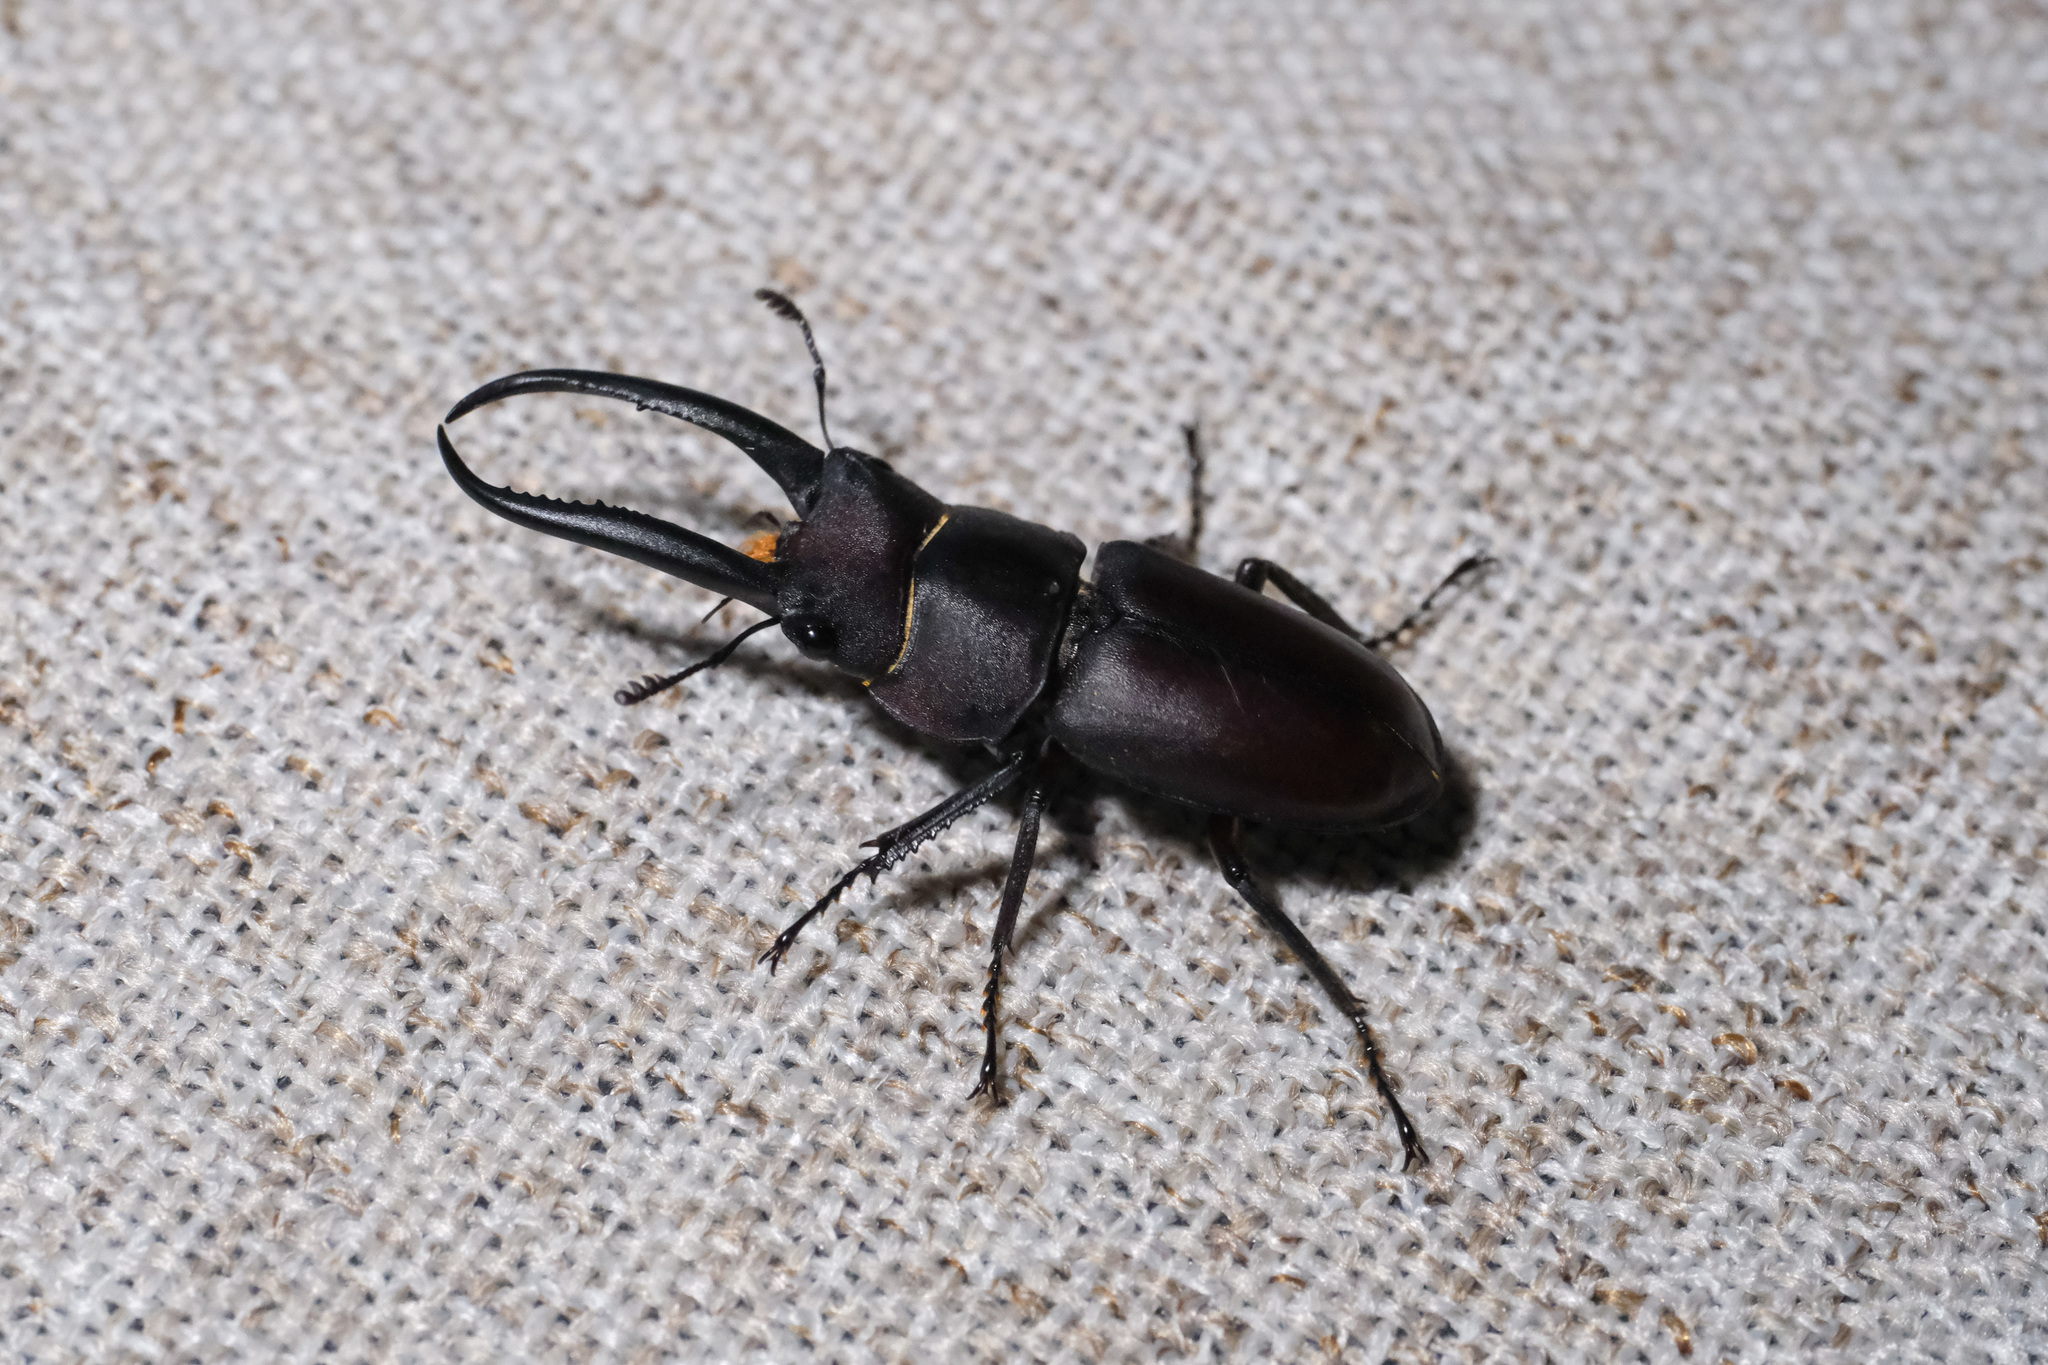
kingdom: Animalia
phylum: Arthropoda
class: Insecta
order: Coleoptera
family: Lucanidae
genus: Epidorcus
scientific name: Epidorcus gracilis
